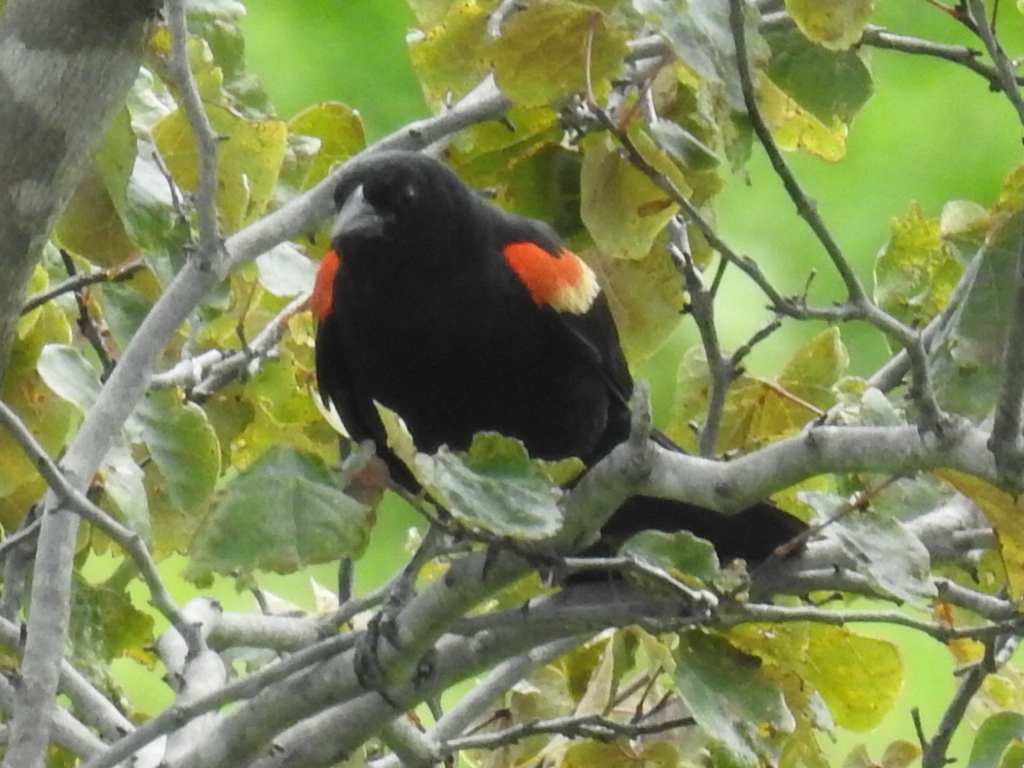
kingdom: Animalia
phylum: Chordata
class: Aves
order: Passeriformes
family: Icteridae
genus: Agelaius
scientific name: Agelaius phoeniceus
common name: Red-winged blackbird
